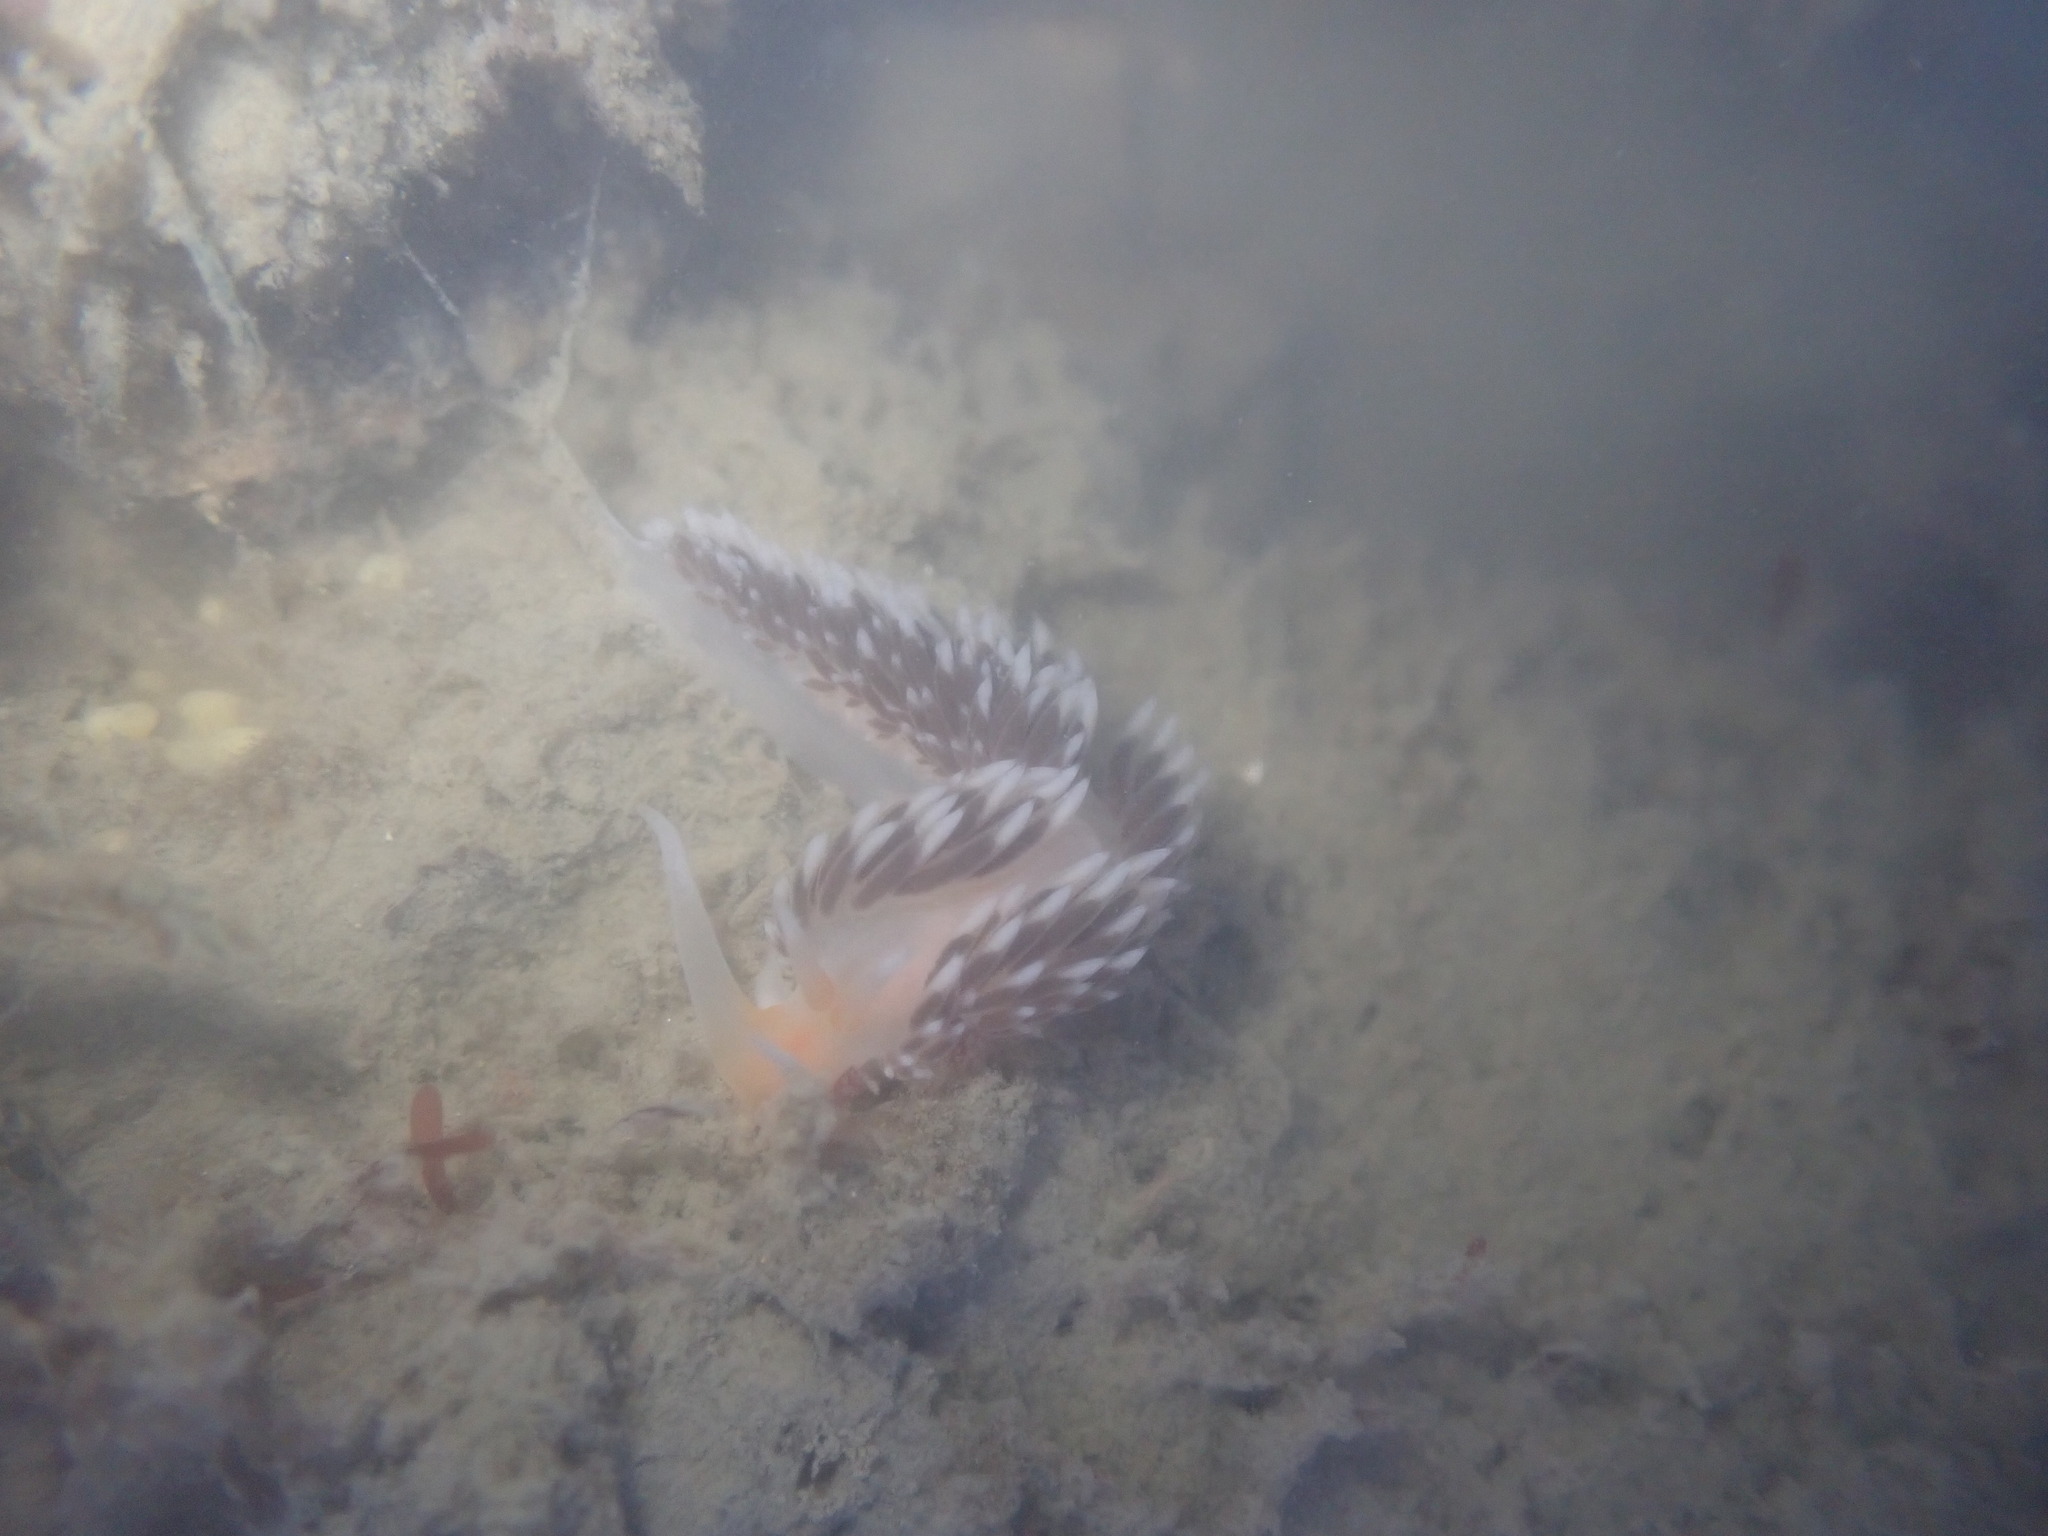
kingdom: Animalia
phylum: Mollusca
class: Gastropoda
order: Nudibranchia
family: Facelinidae
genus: Phidiana
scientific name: Phidiana milleri
